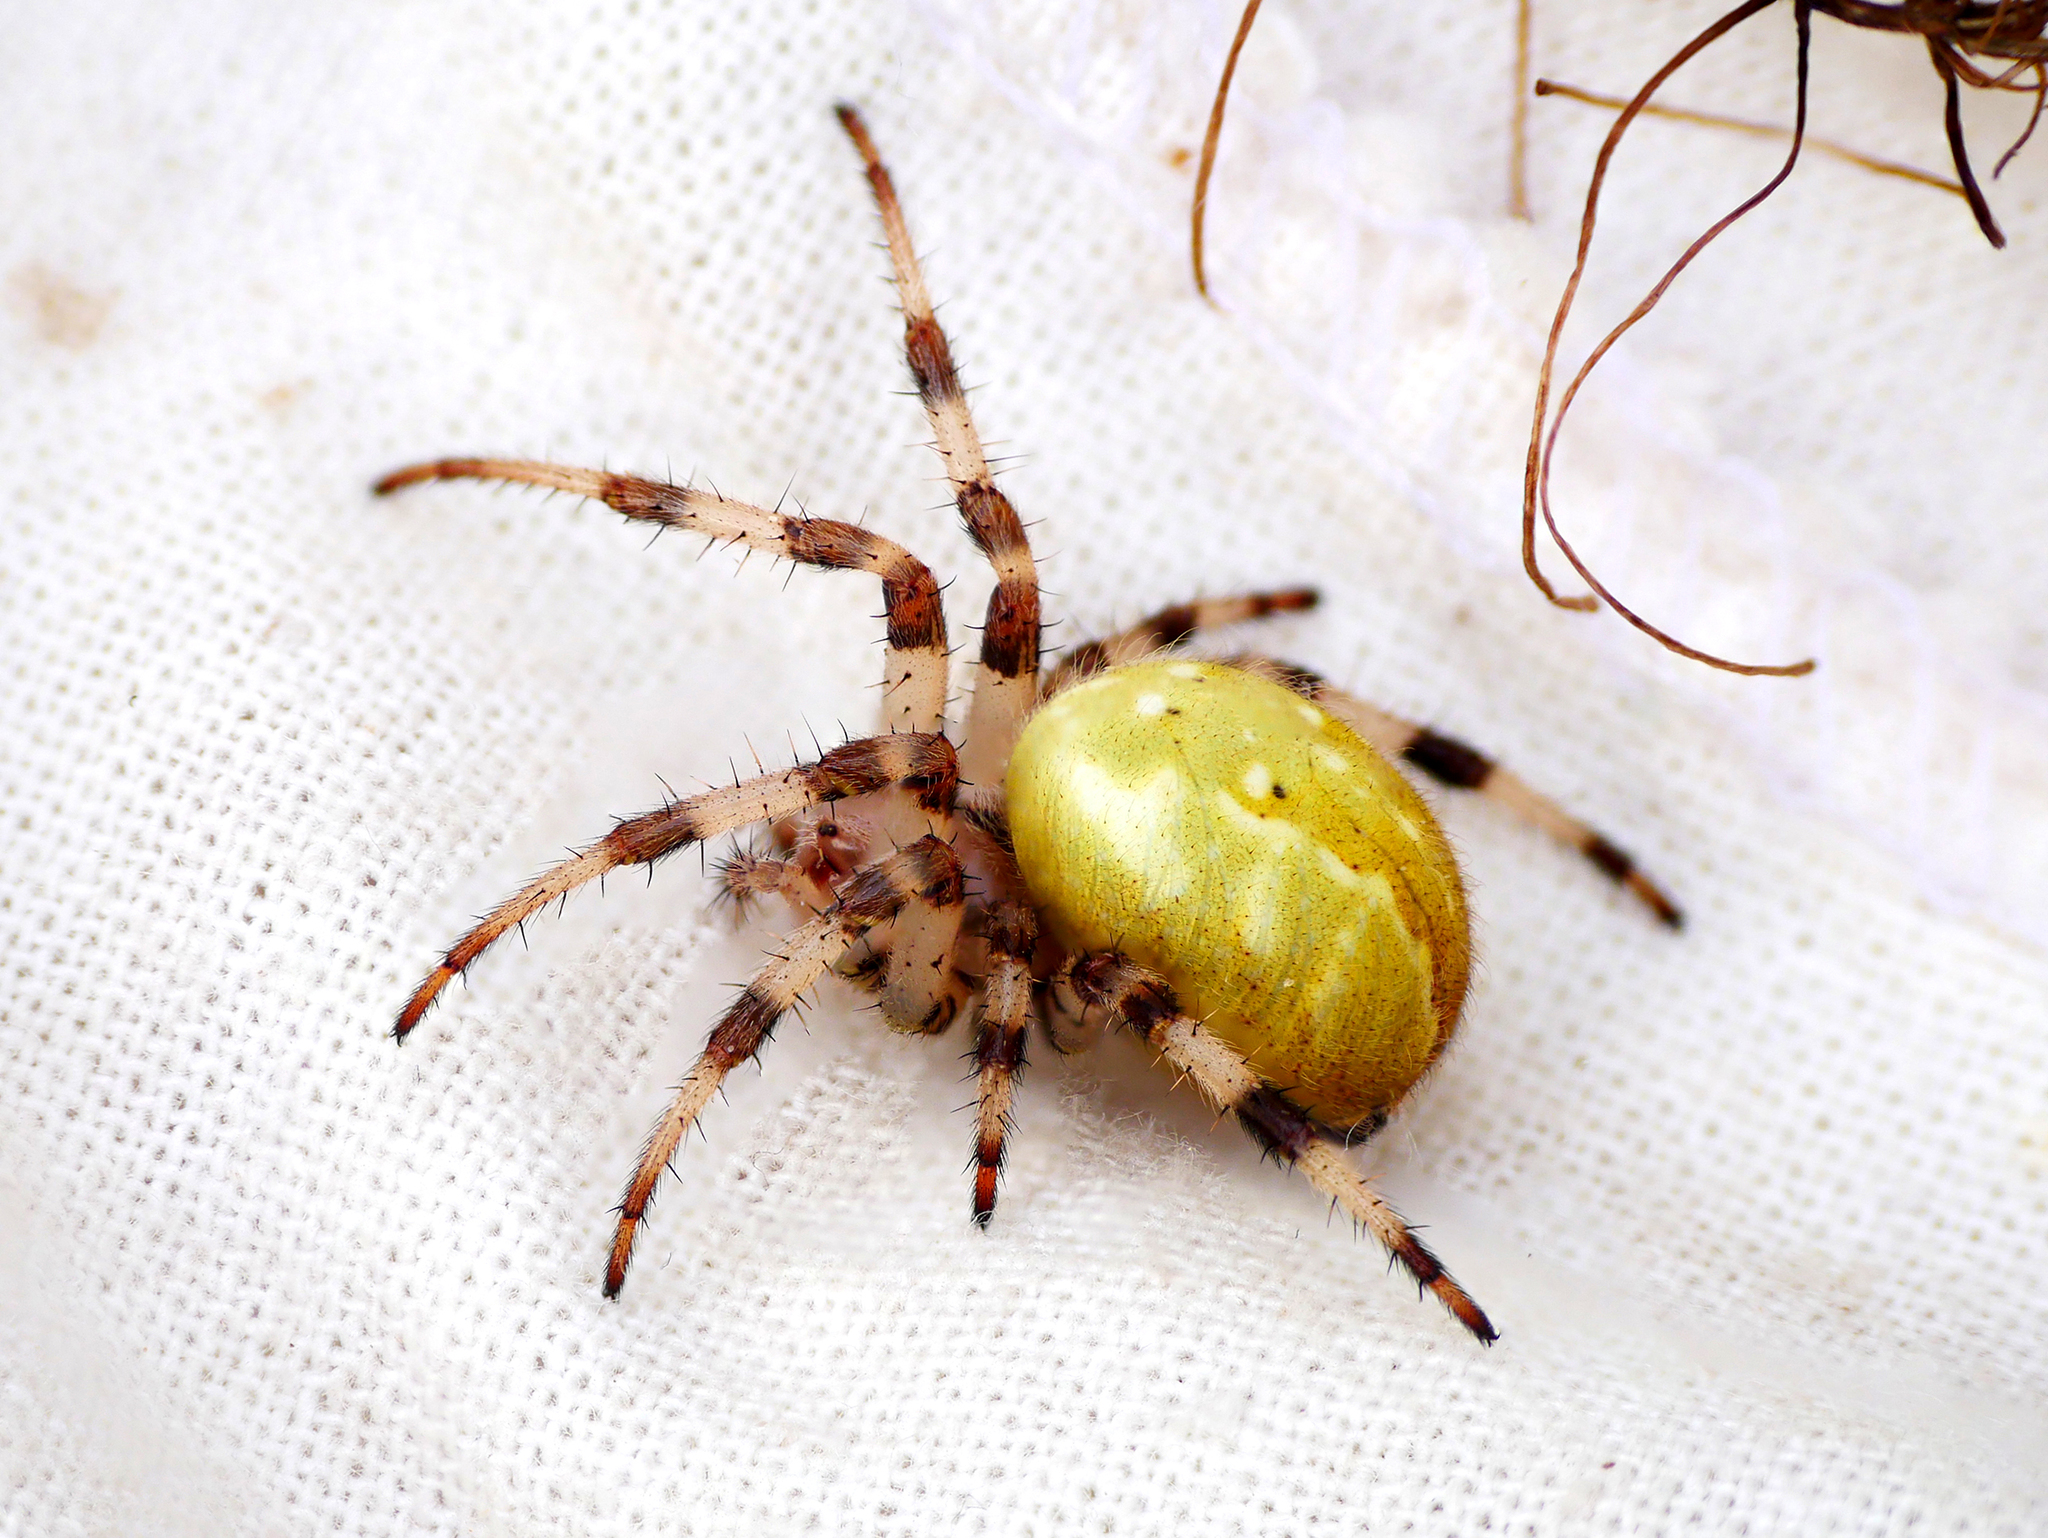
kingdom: Animalia
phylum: Arthropoda
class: Arachnida
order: Araneae
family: Araneidae
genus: Araneus
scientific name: Araneus quadratus
